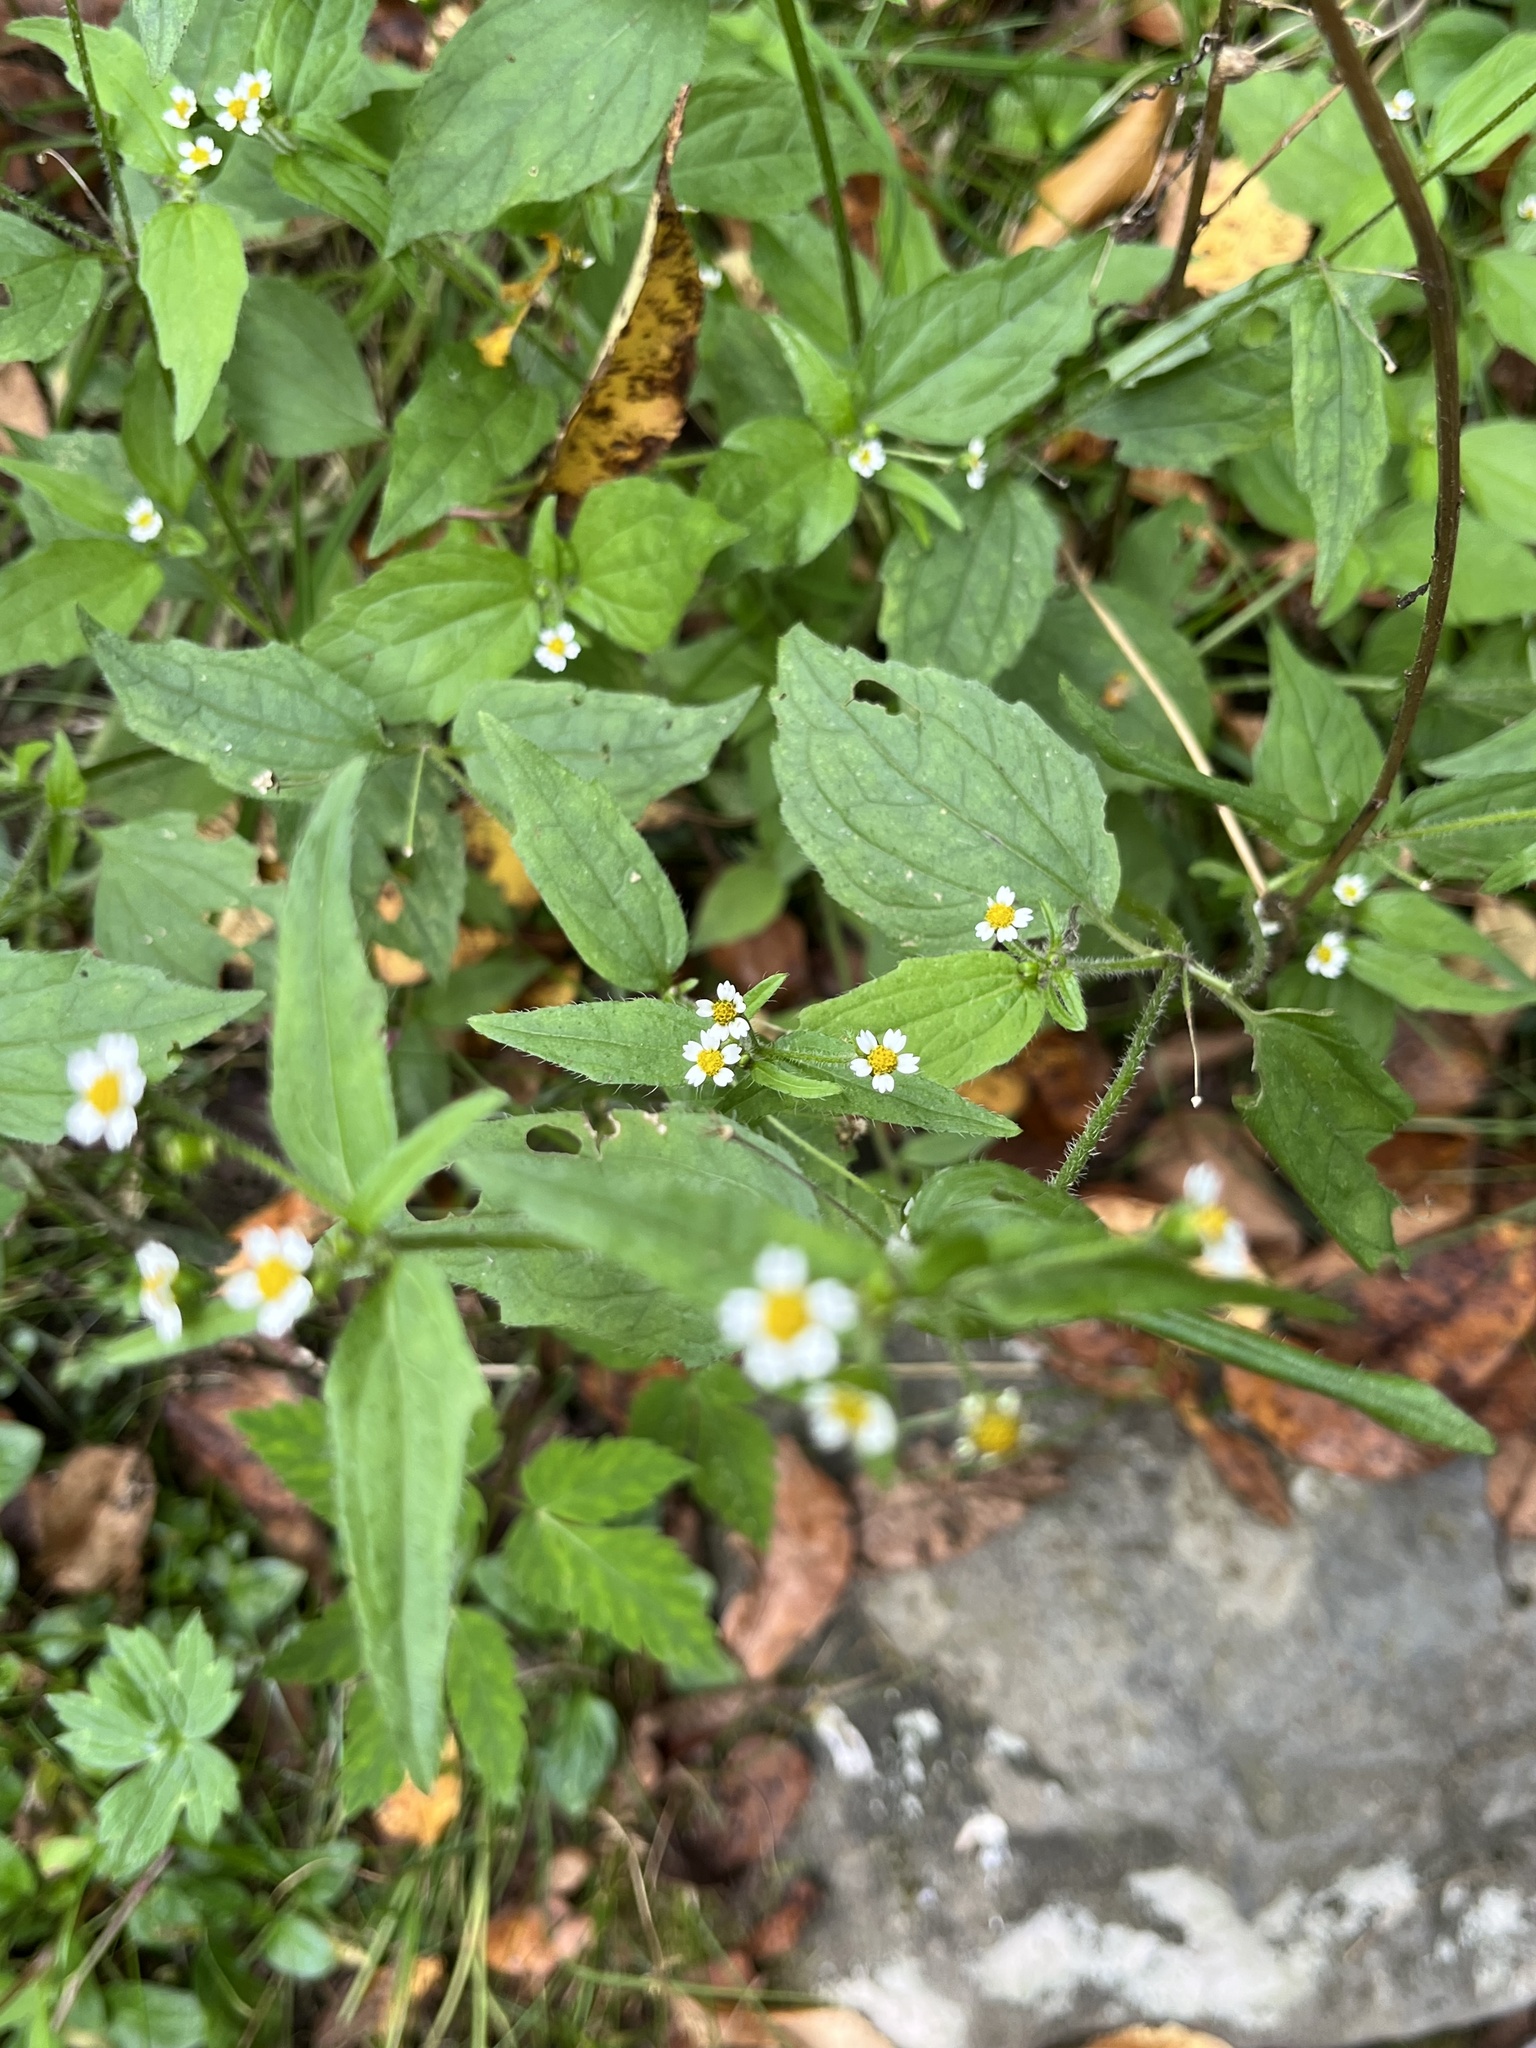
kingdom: Plantae
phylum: Tracheophyta
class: Magnoliopsida
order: Asterales
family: Asteraceae
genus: Galinsoga
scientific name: Galinsoga quadriradiata
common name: Shaggy soldier
